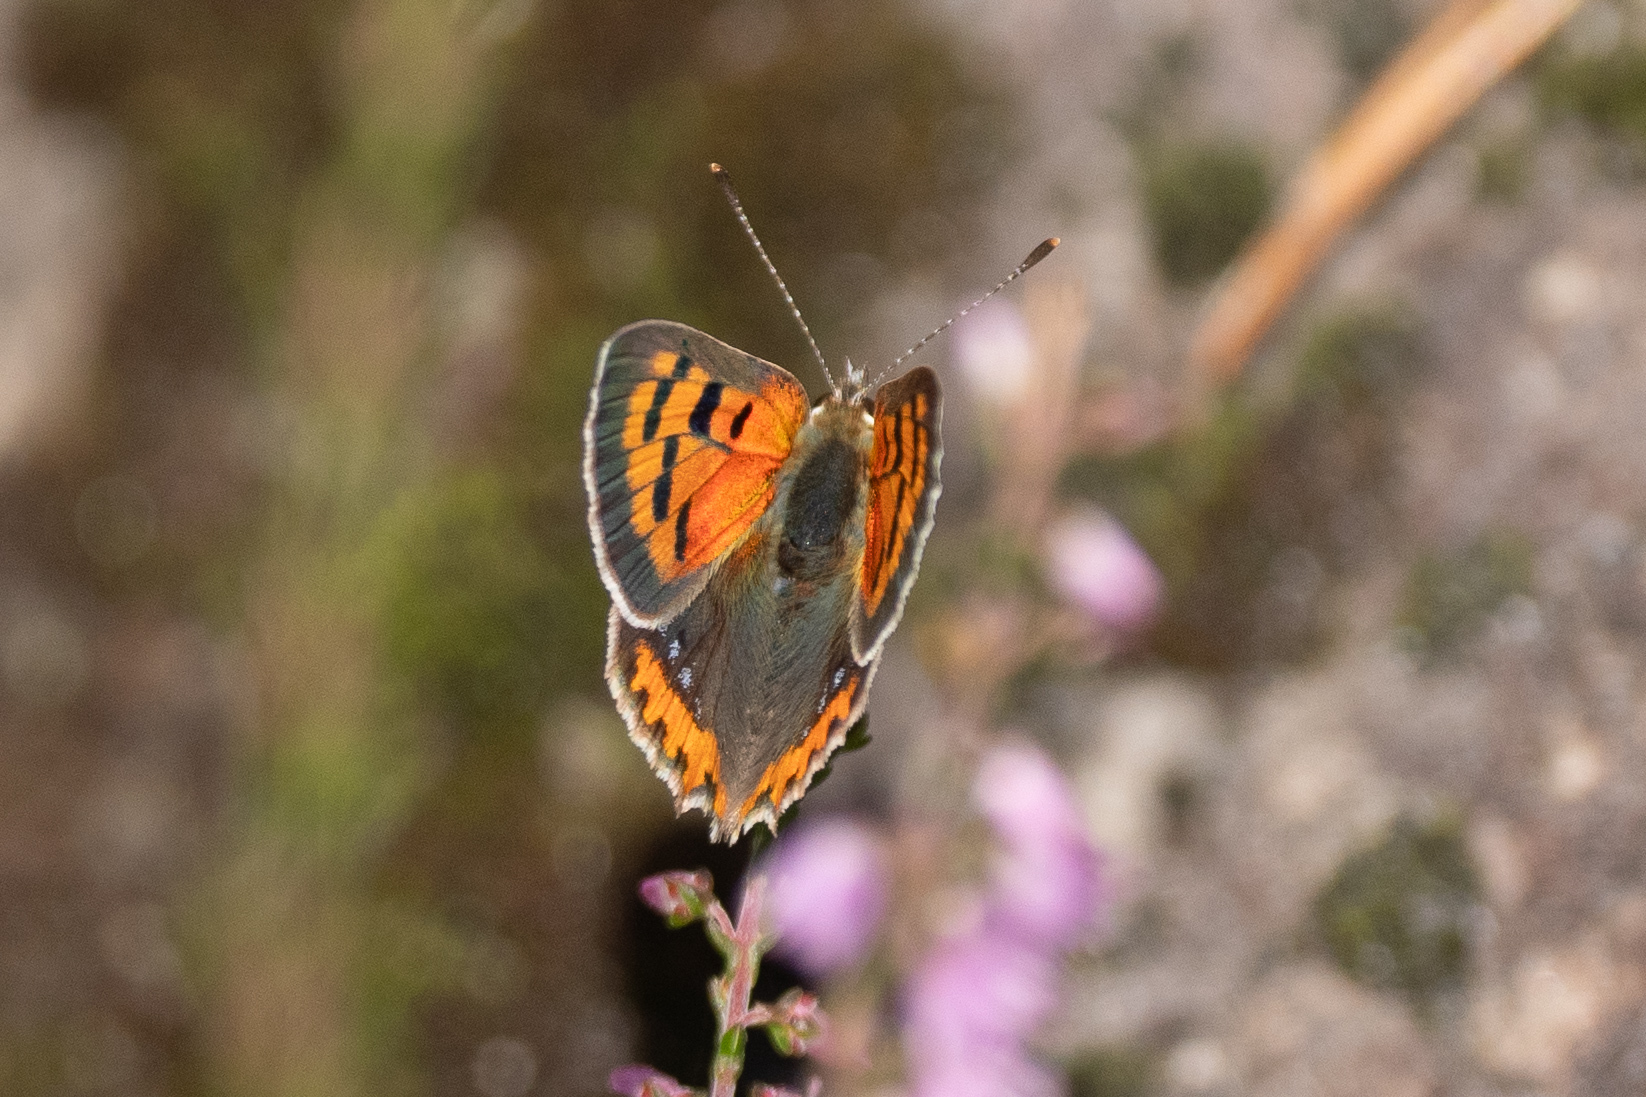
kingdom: Animalia
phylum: Arthropoda
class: Insecta
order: Lepidoptera
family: Lycaenidae
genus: Lycaena
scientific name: Lycaena phlaeas
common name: Small copper
